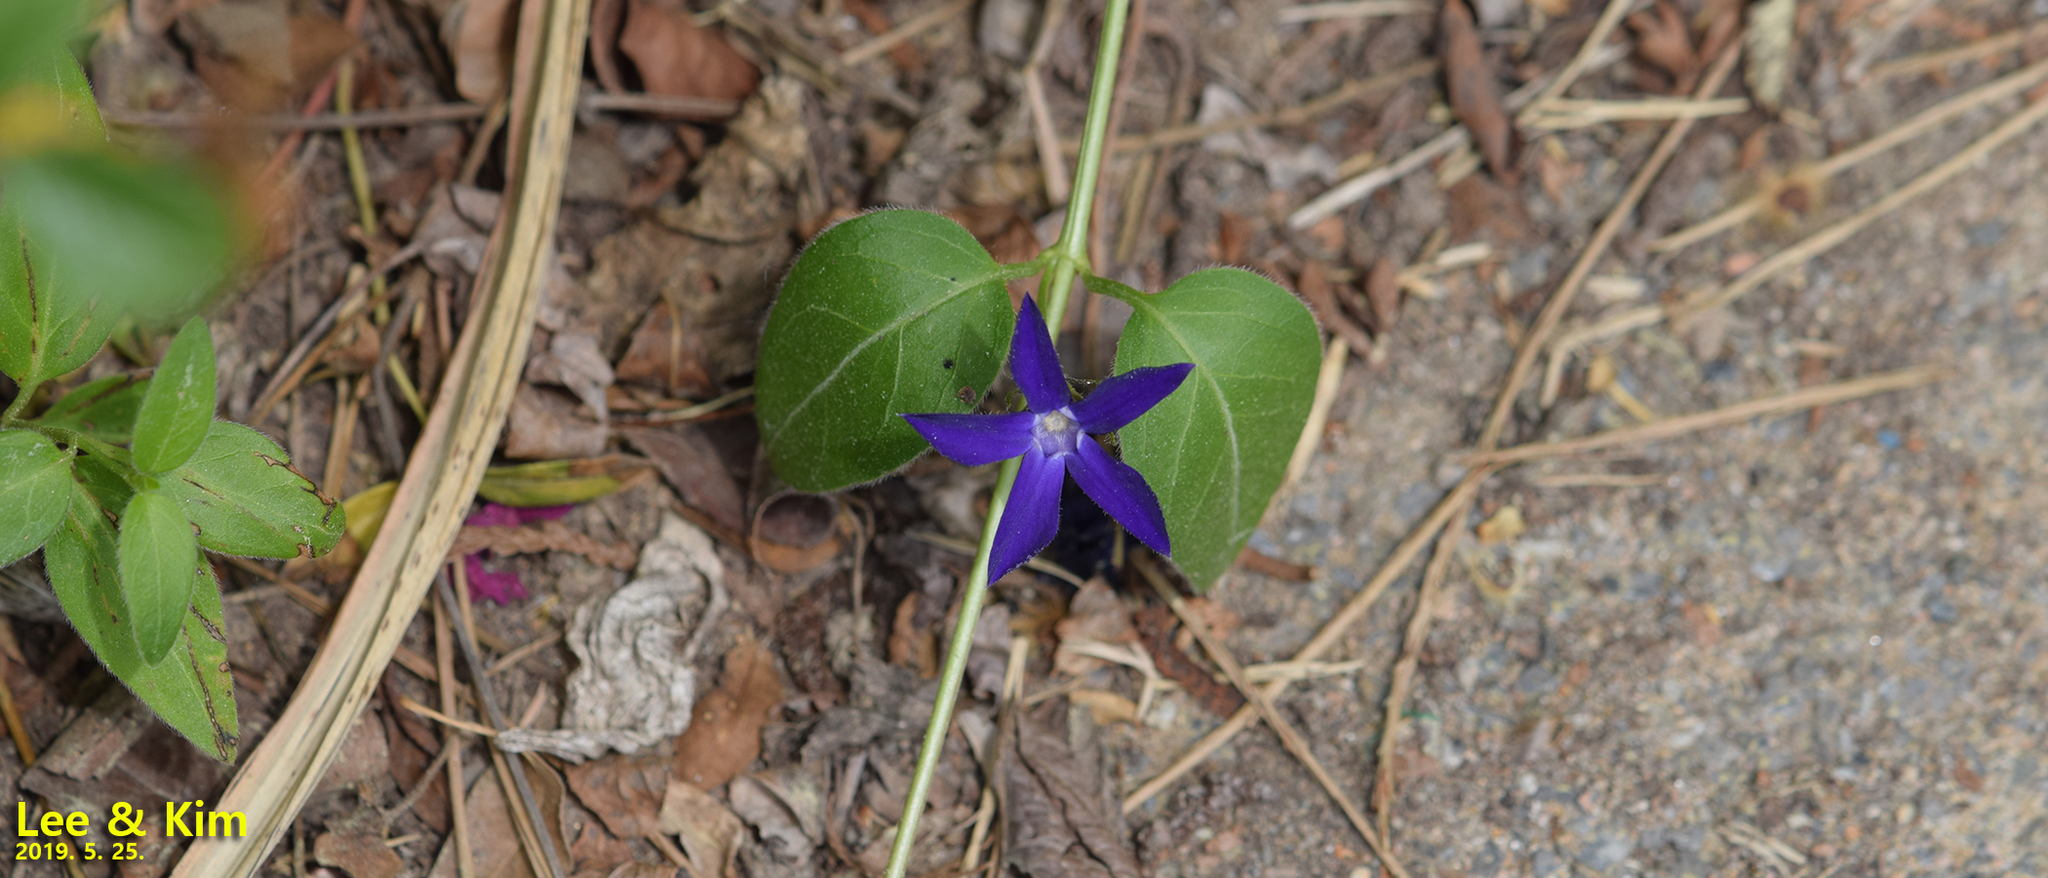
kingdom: Plantae
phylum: Tracheophyta
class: Magnoliopsida
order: Gentianales
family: Apocynaceae
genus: Vinca
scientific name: Vinca major
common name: Greater periwinkle
